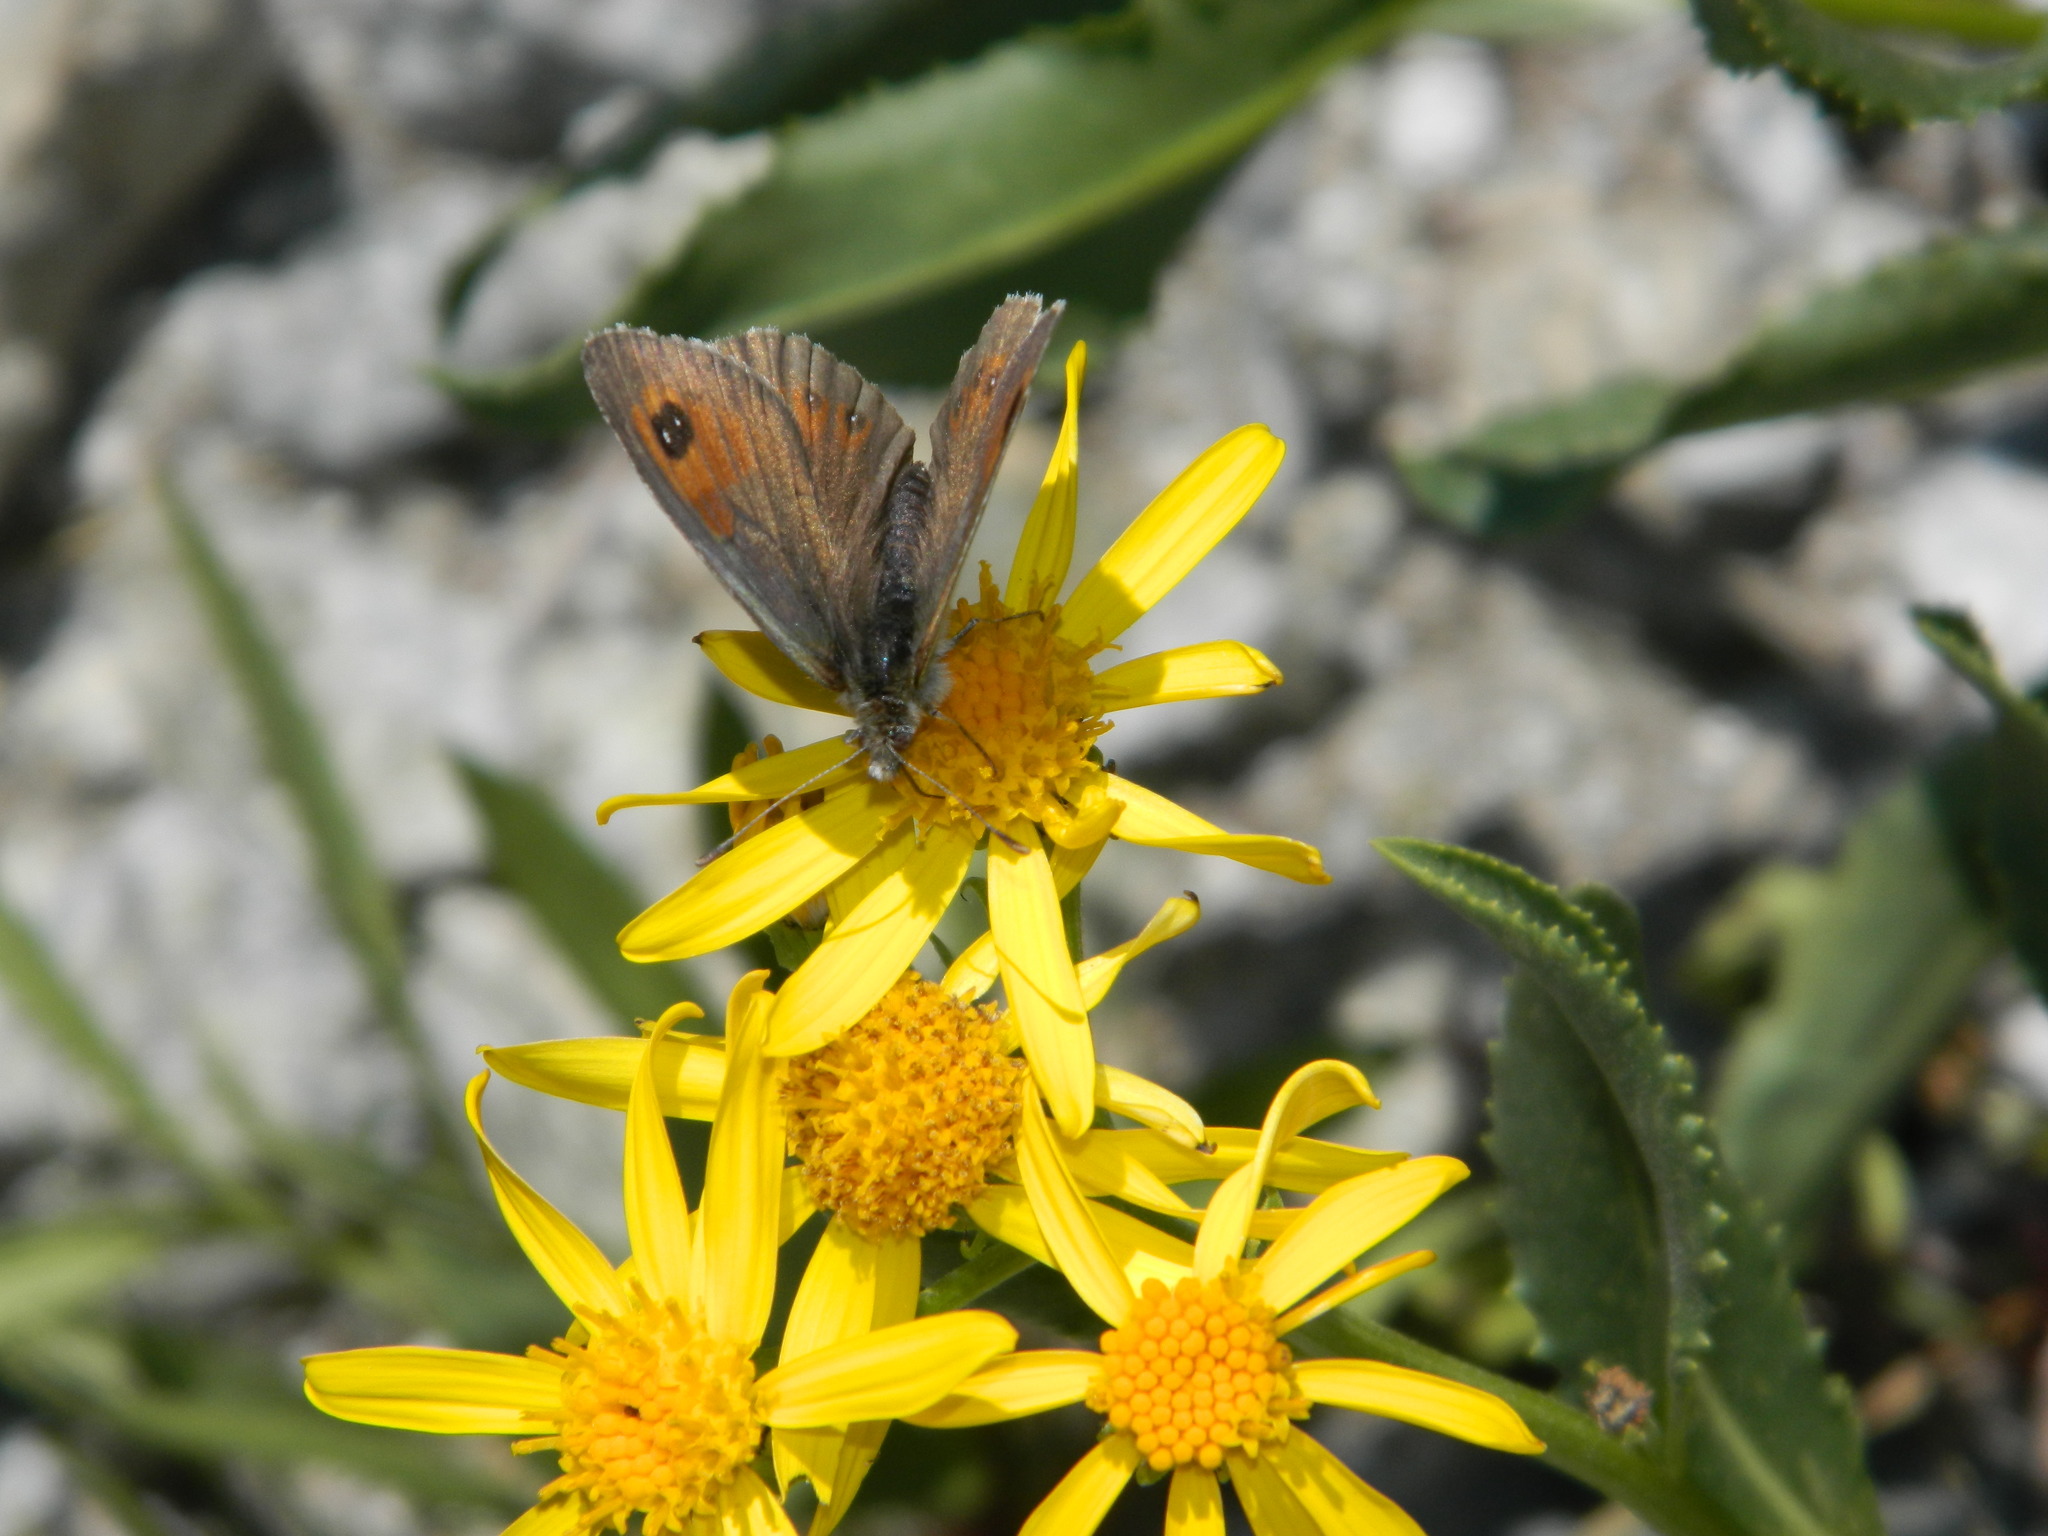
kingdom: Animalia
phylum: Arthropoda
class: Insecta
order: Lepidoptera
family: Nymphalidae
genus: Erebia
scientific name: Erebia tyndarus
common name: Swiss brassy ringlet
